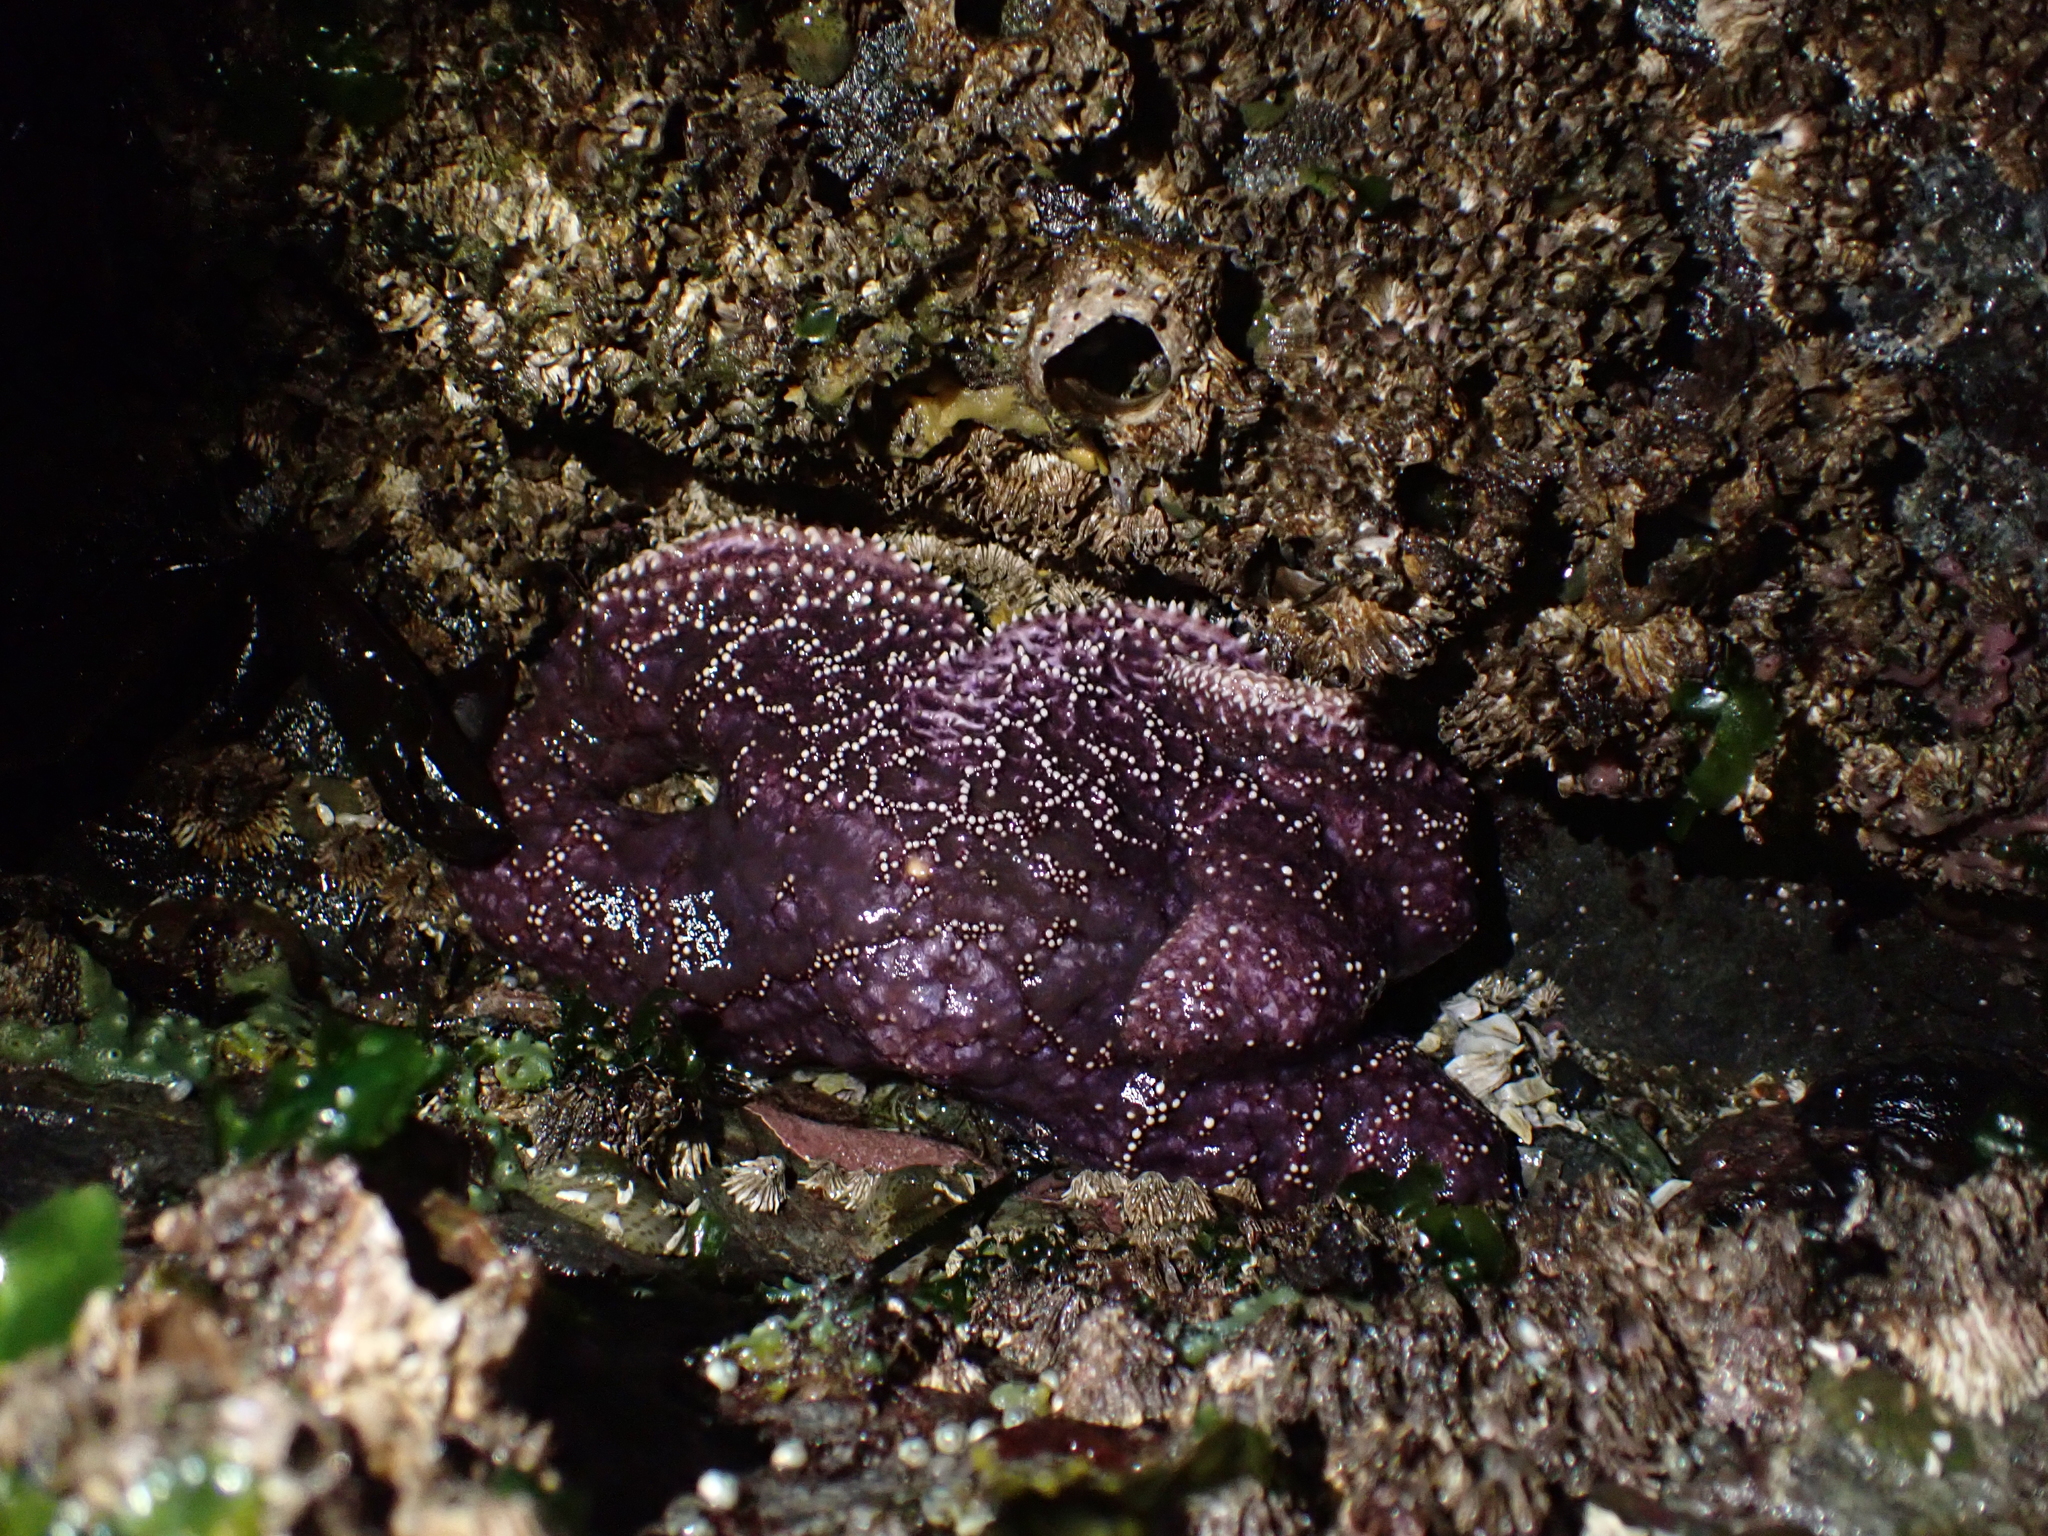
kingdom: Animalia
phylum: Echinodermata
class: Asteroidea
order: Forcipulatida
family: Asteriidae
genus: Pisaster
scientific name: Pisaster ochraceus
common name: Ochre stars
